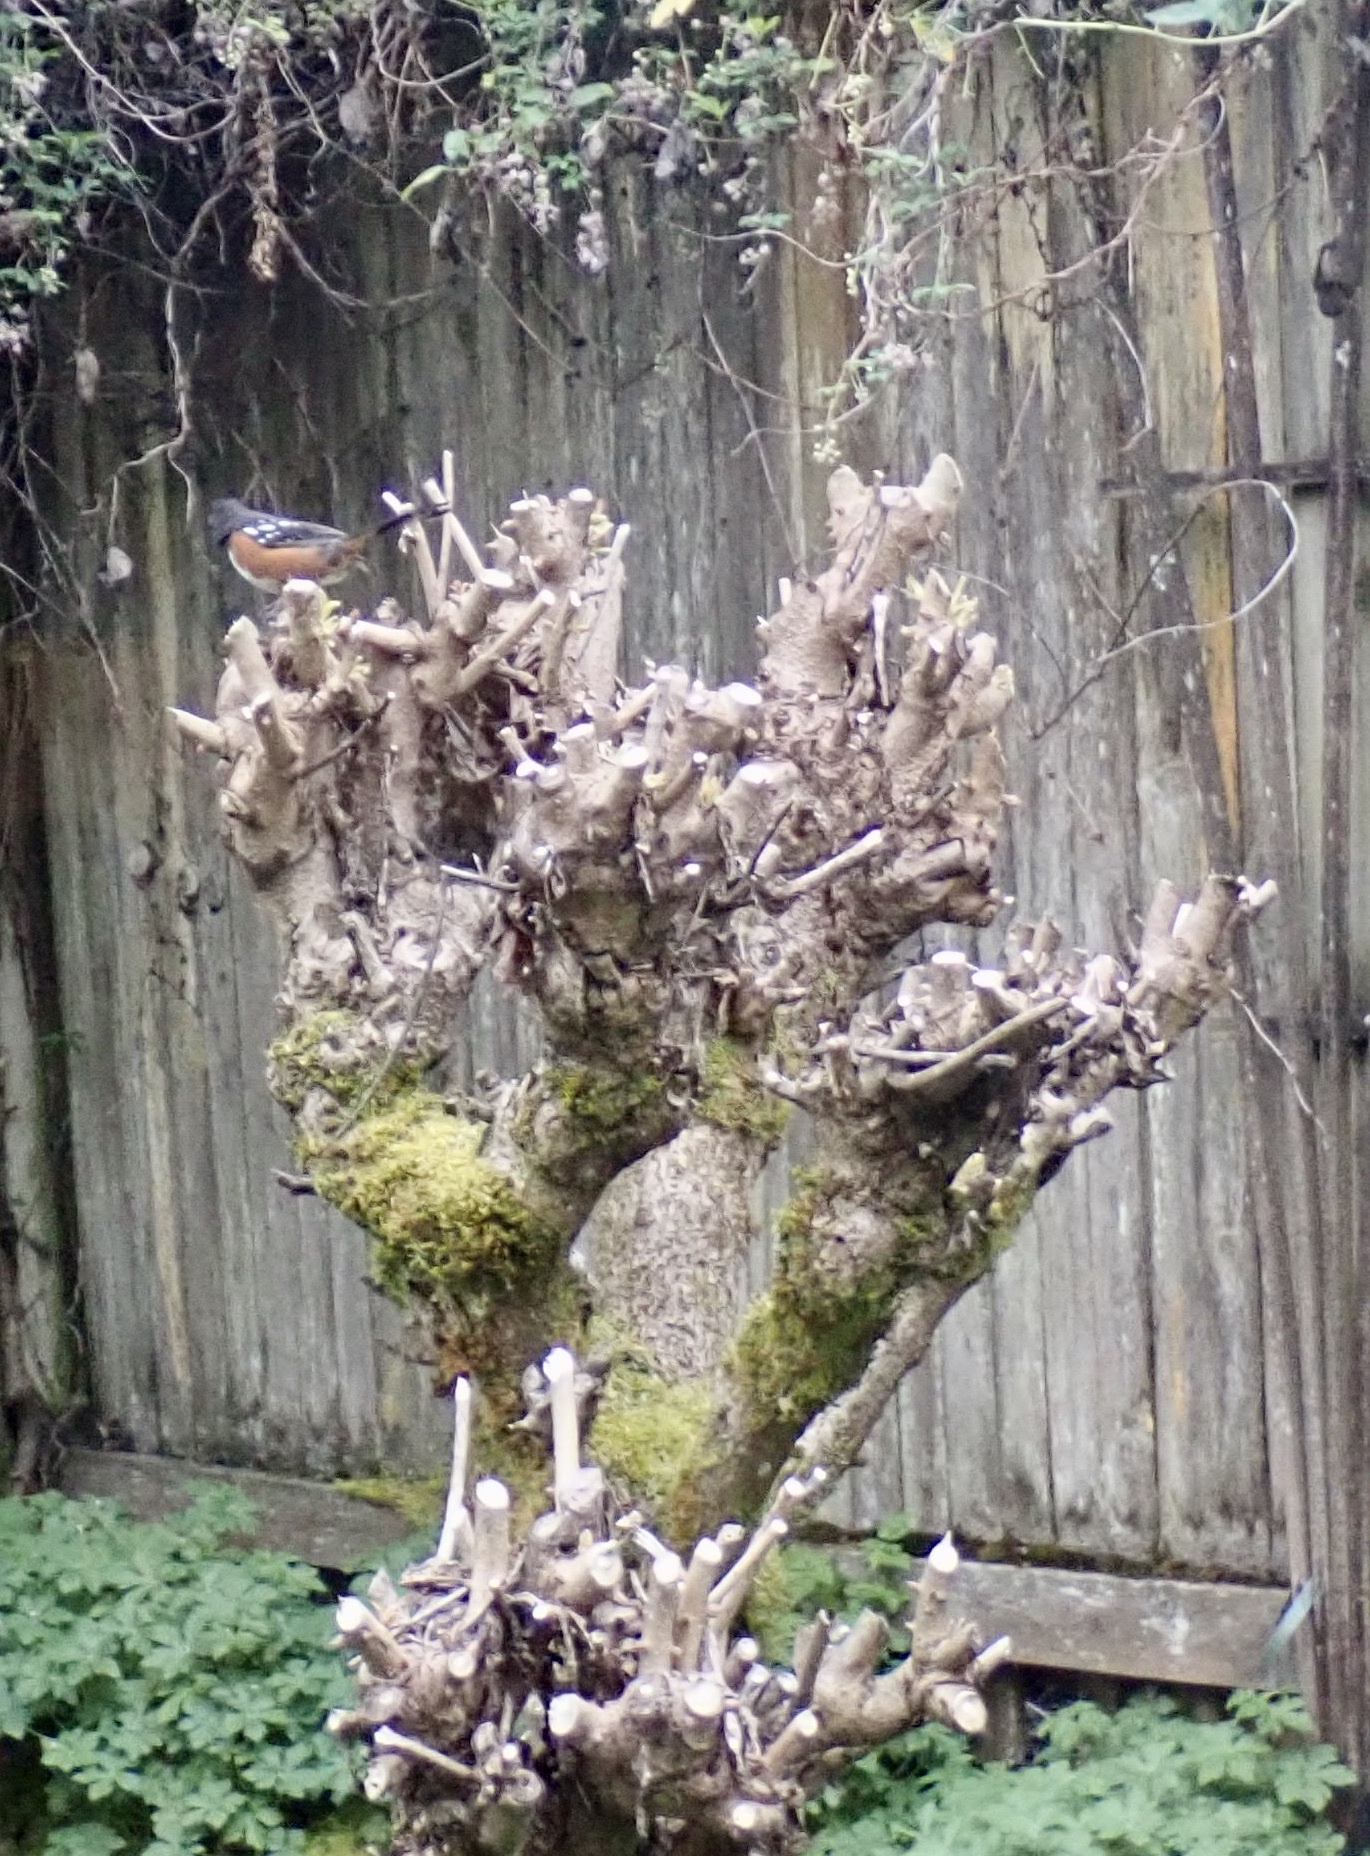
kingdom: Animalia
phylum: Chordata
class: Aves
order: Passeriformes
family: Passerellidae
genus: Pipilo
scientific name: Pipilo maculatus
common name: Spotted towhee
